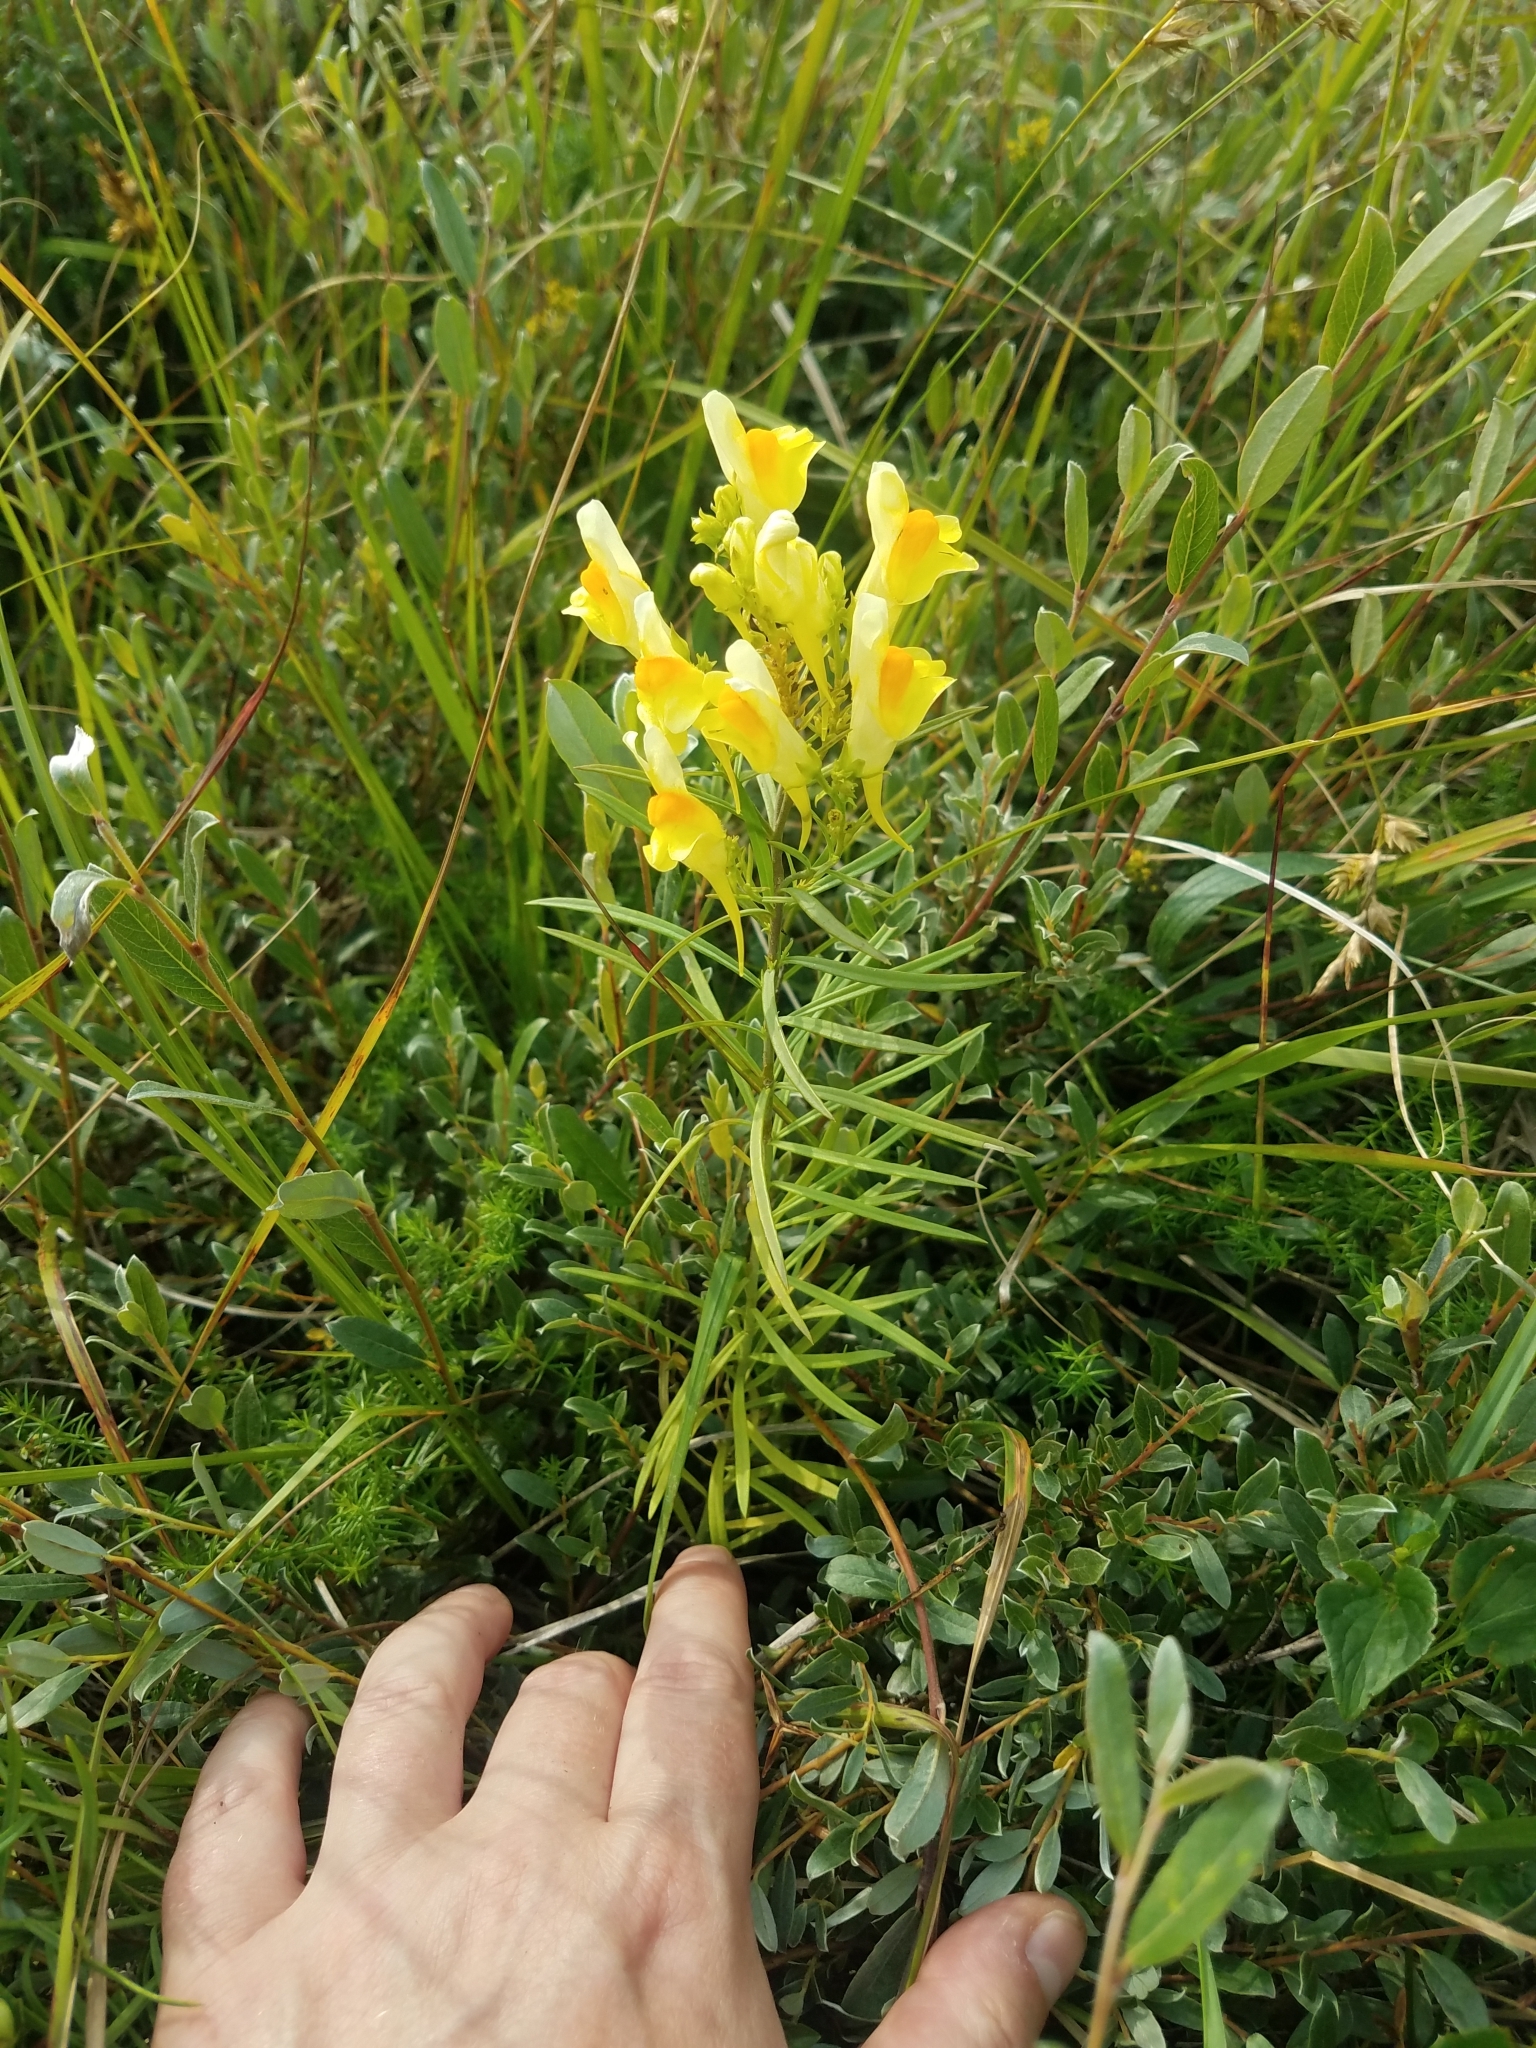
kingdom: Plantae
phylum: Tracheophyta
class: Magnoliopsida
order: Lamiales
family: Plantaginaceae
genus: Linaria
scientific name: Linaria vulgaris
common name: Butter and eggs
